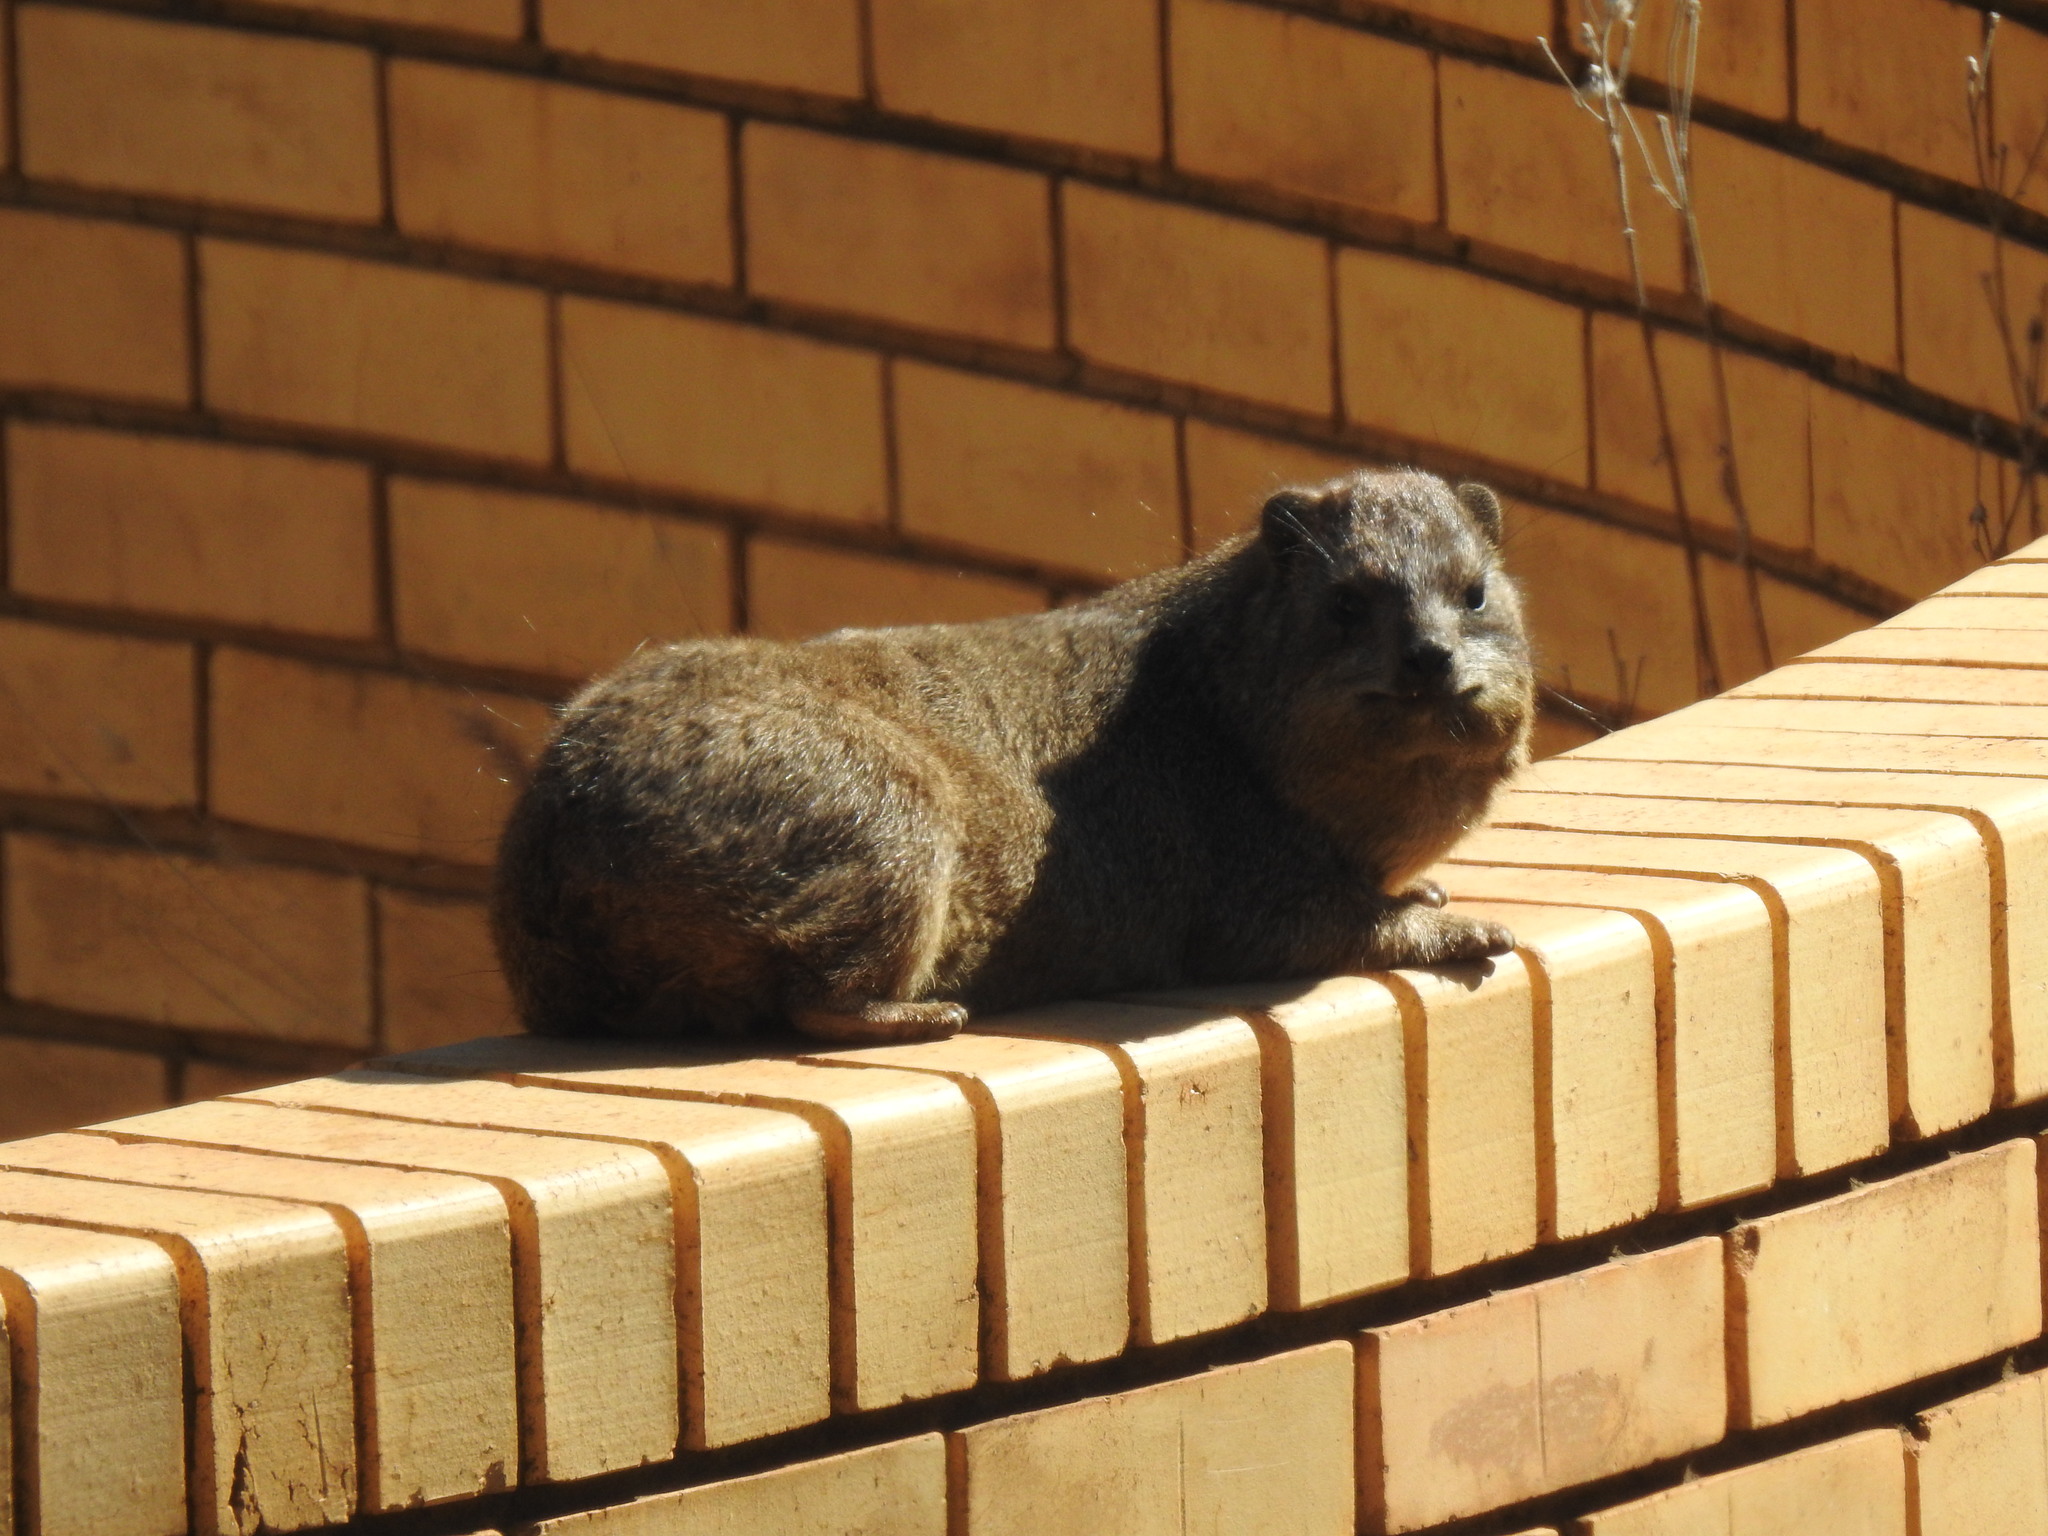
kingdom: Animalia
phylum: Chordata
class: Mammalia
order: Hyracoidea
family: Procaviidae
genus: Procavia
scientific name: Procavia capensis
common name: Rock hyrax
